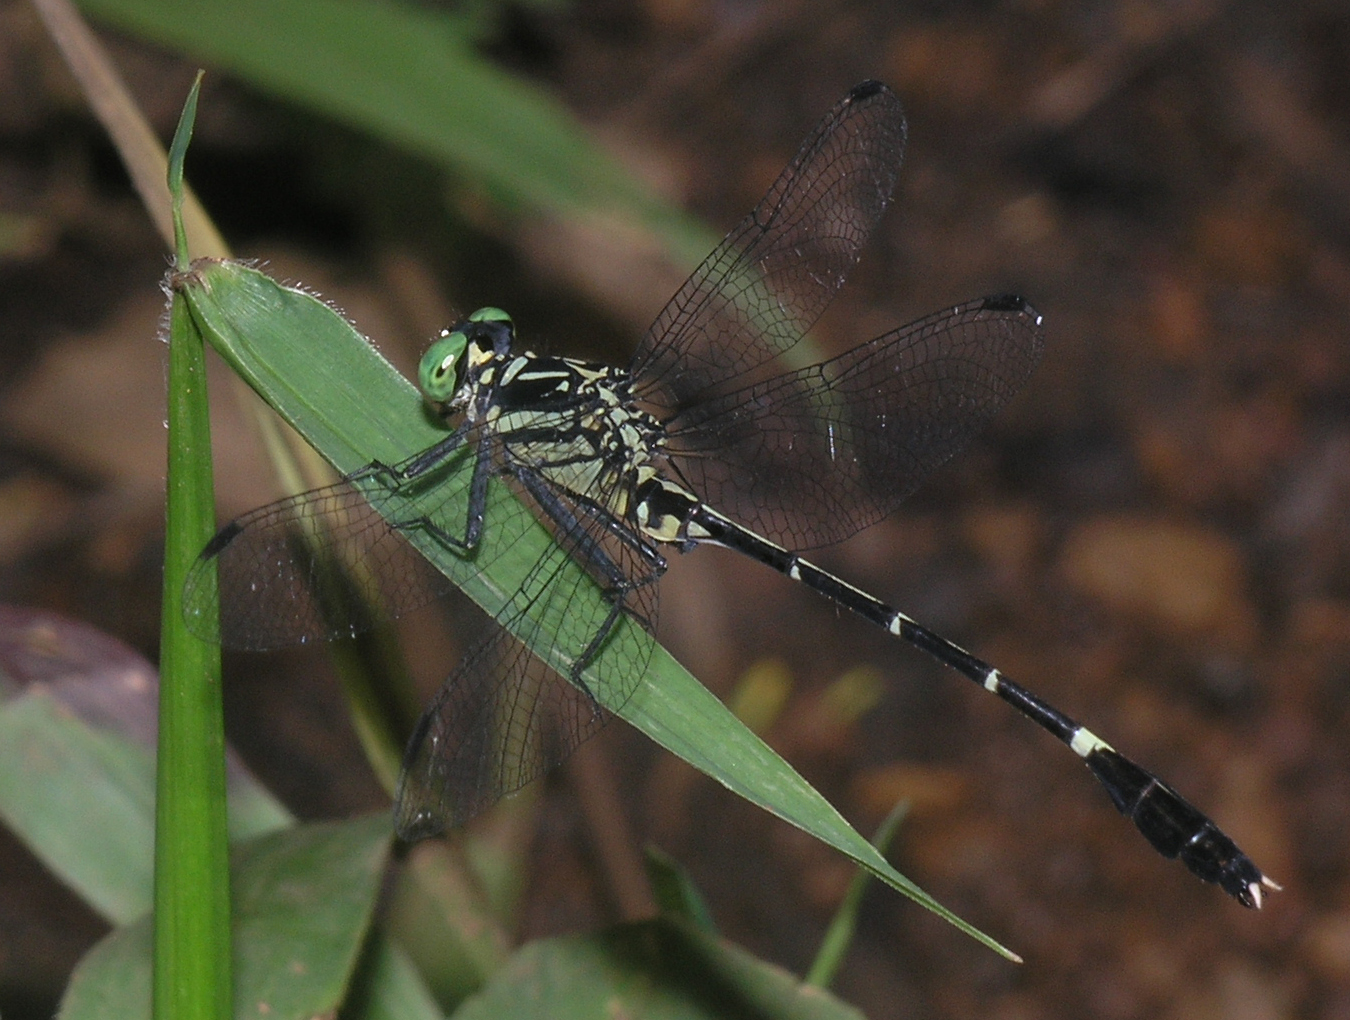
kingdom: Animalia
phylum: Arthropoda
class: Insecta
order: Odonata
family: Gomphidae
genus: Euthygomphus
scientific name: Euthygomphus schorri
